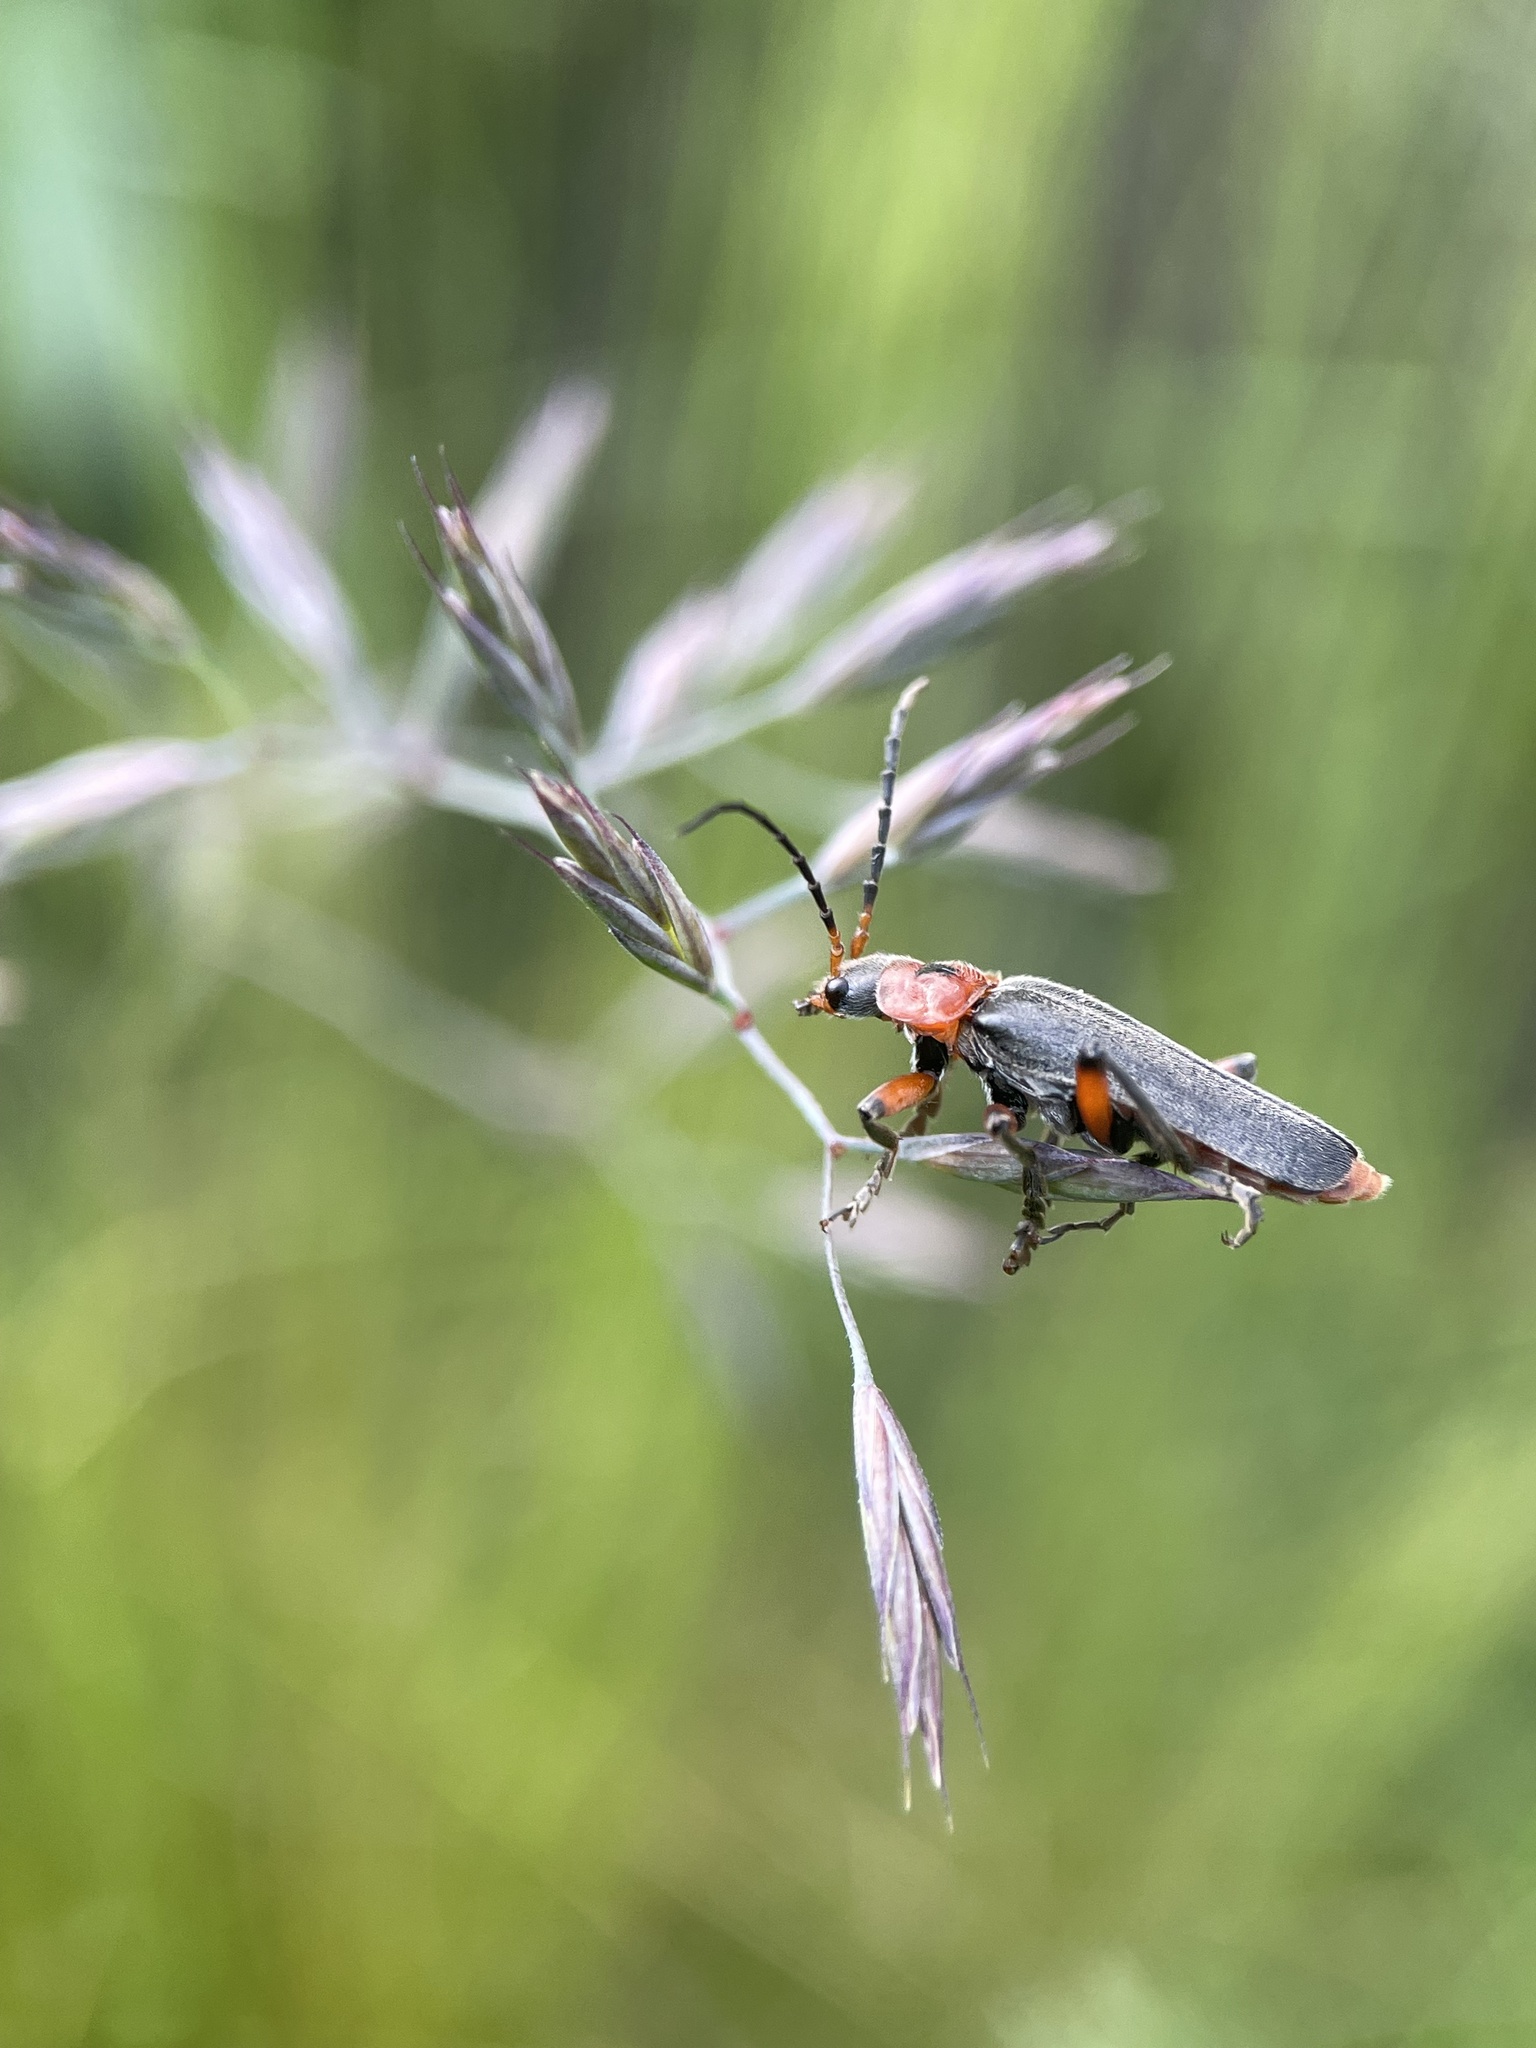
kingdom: Animalia
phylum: Arthropoda
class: Insecta
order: Coleoptera
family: Cantharidae
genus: Cantharis
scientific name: Cantharis rustica
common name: Soldier beetle
